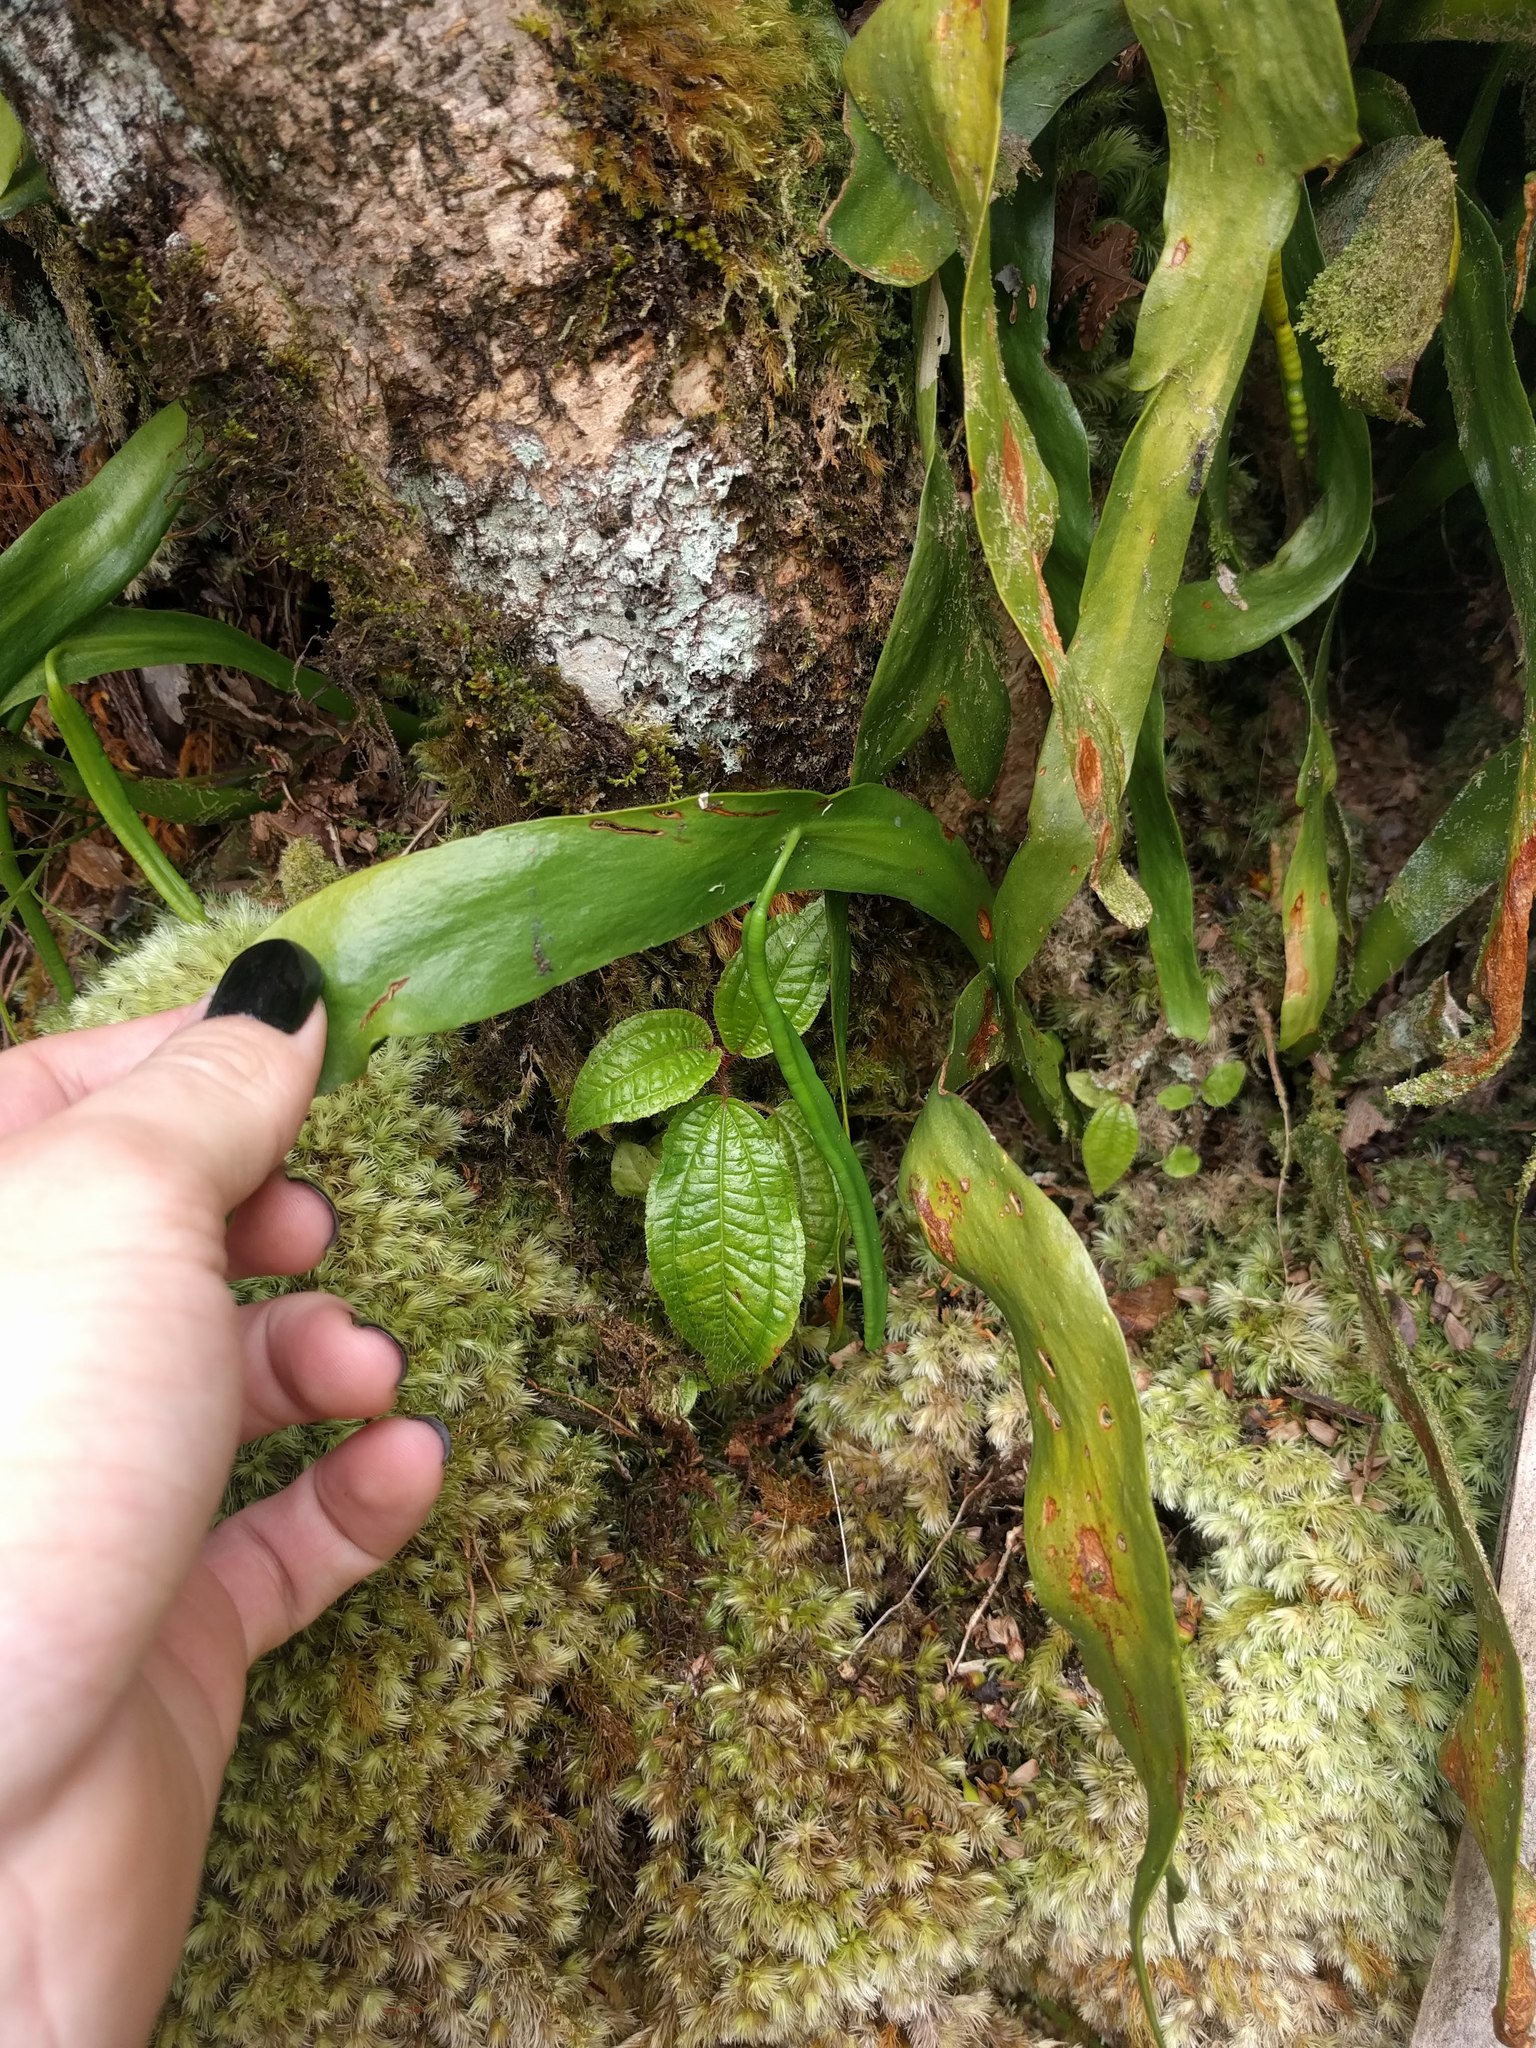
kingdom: Plantae
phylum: Tracheophyta
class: Polypodiopsida
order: Ophioglossales
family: Ophioglossaceae
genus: Ophioderma
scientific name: Ophioderma falcatum
